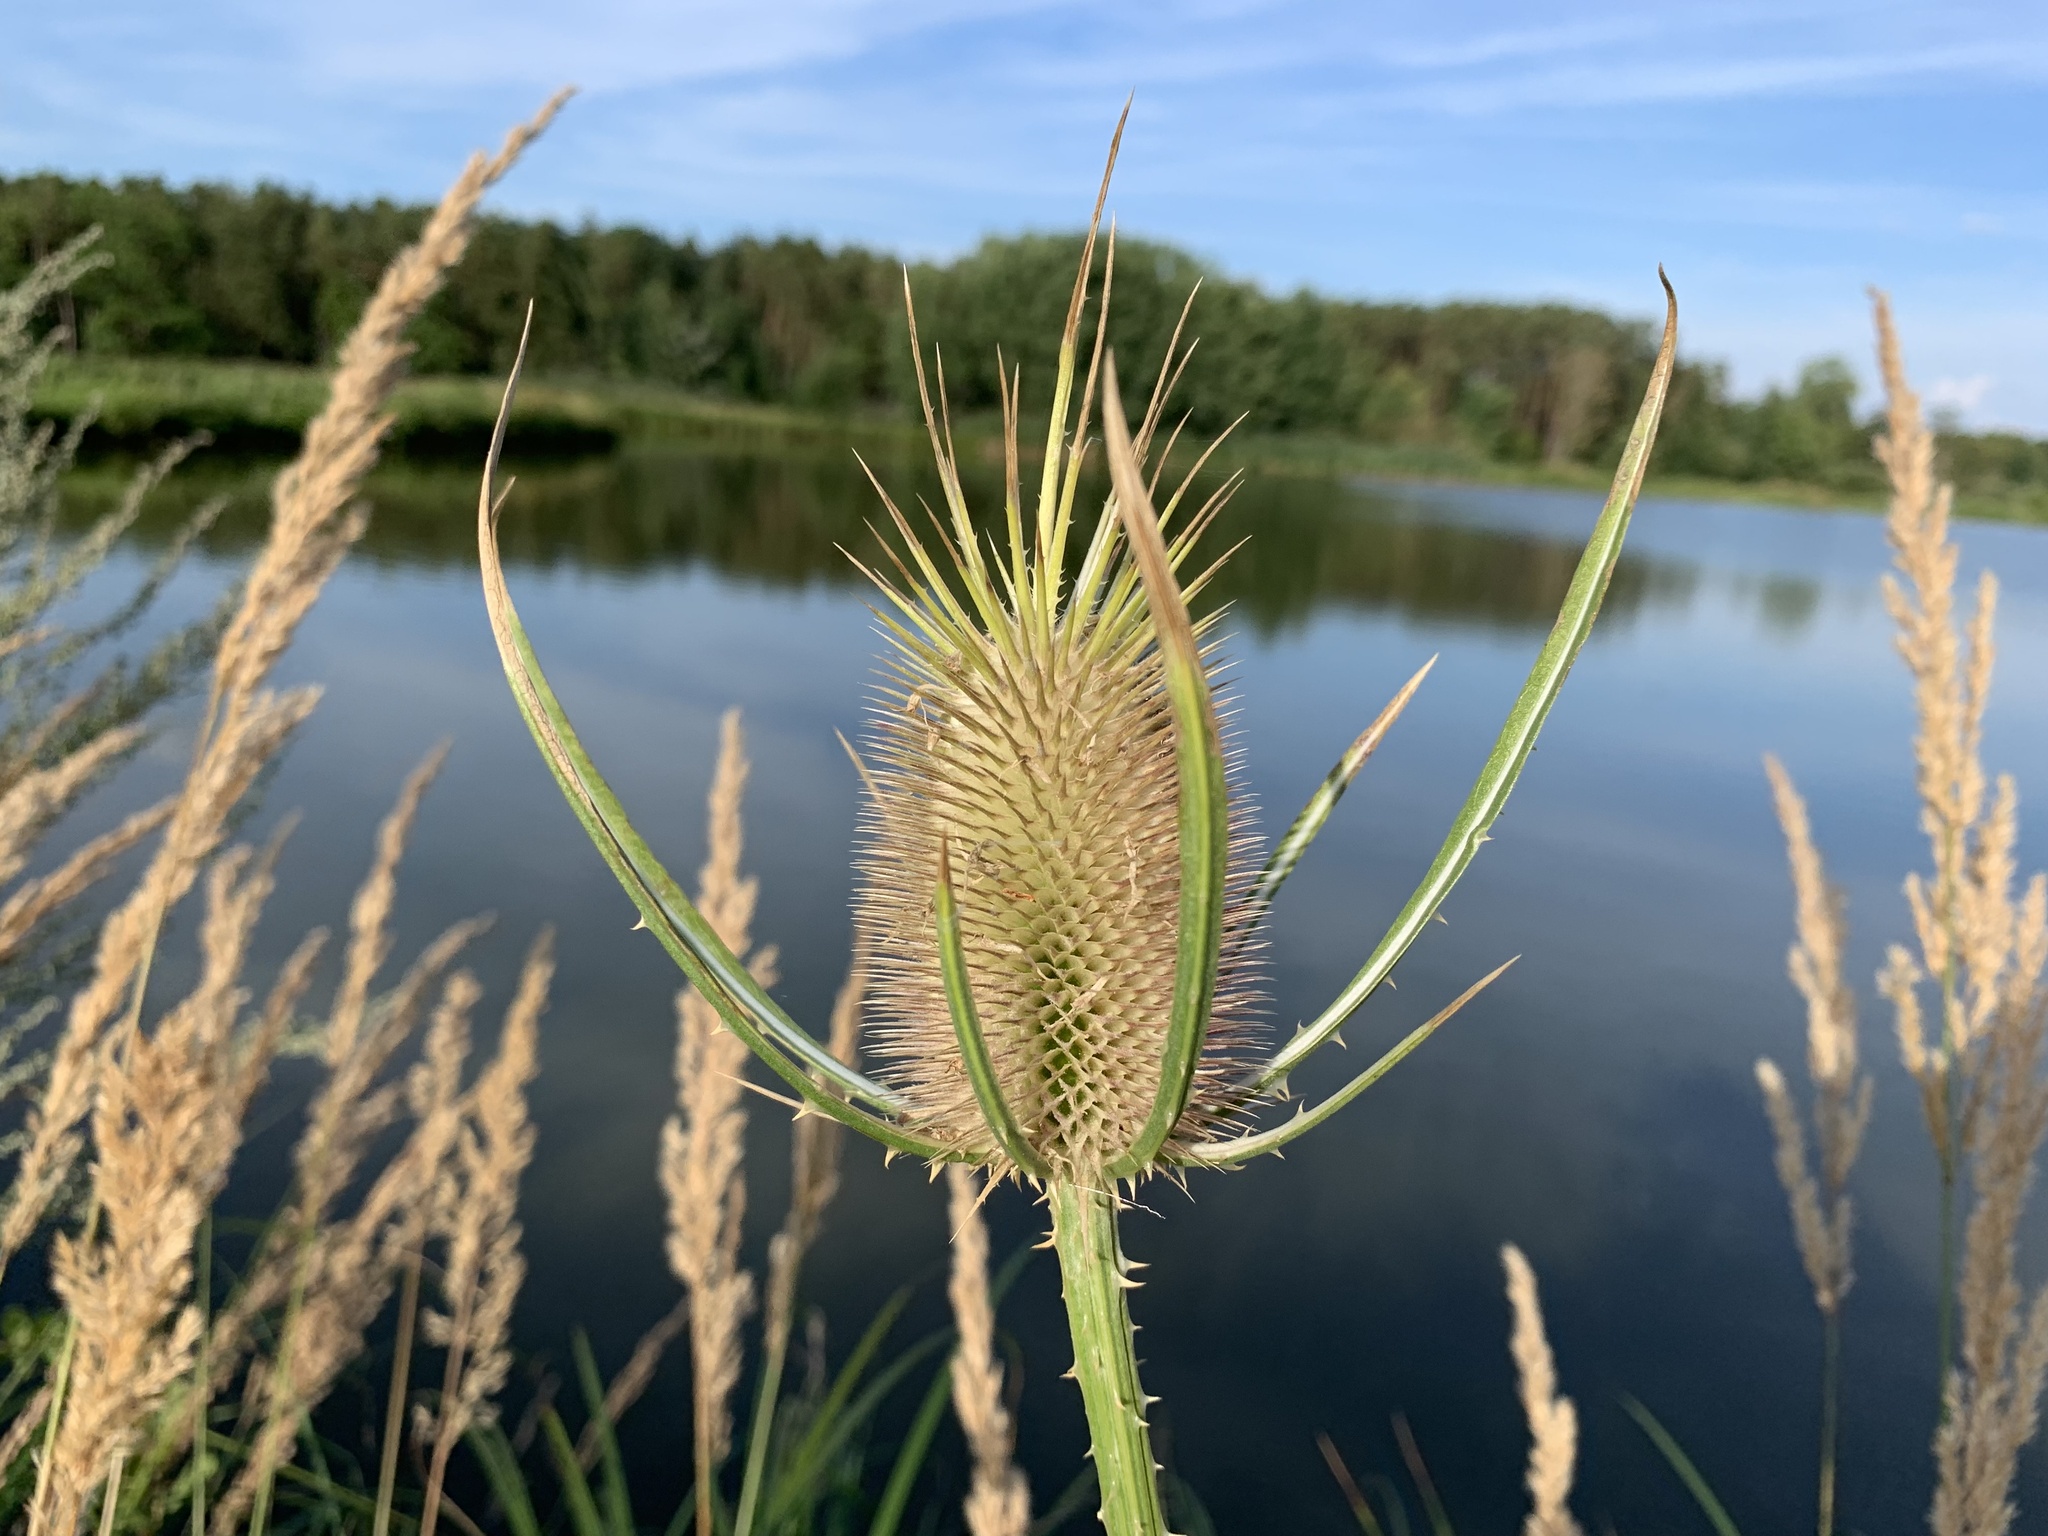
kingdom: Plantae
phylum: Tracheophyta
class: Magnoliopsida
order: Dipsacales
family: Caprifoliaceae
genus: Dipsacus
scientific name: Dipsacus fullonum
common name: Teasel
